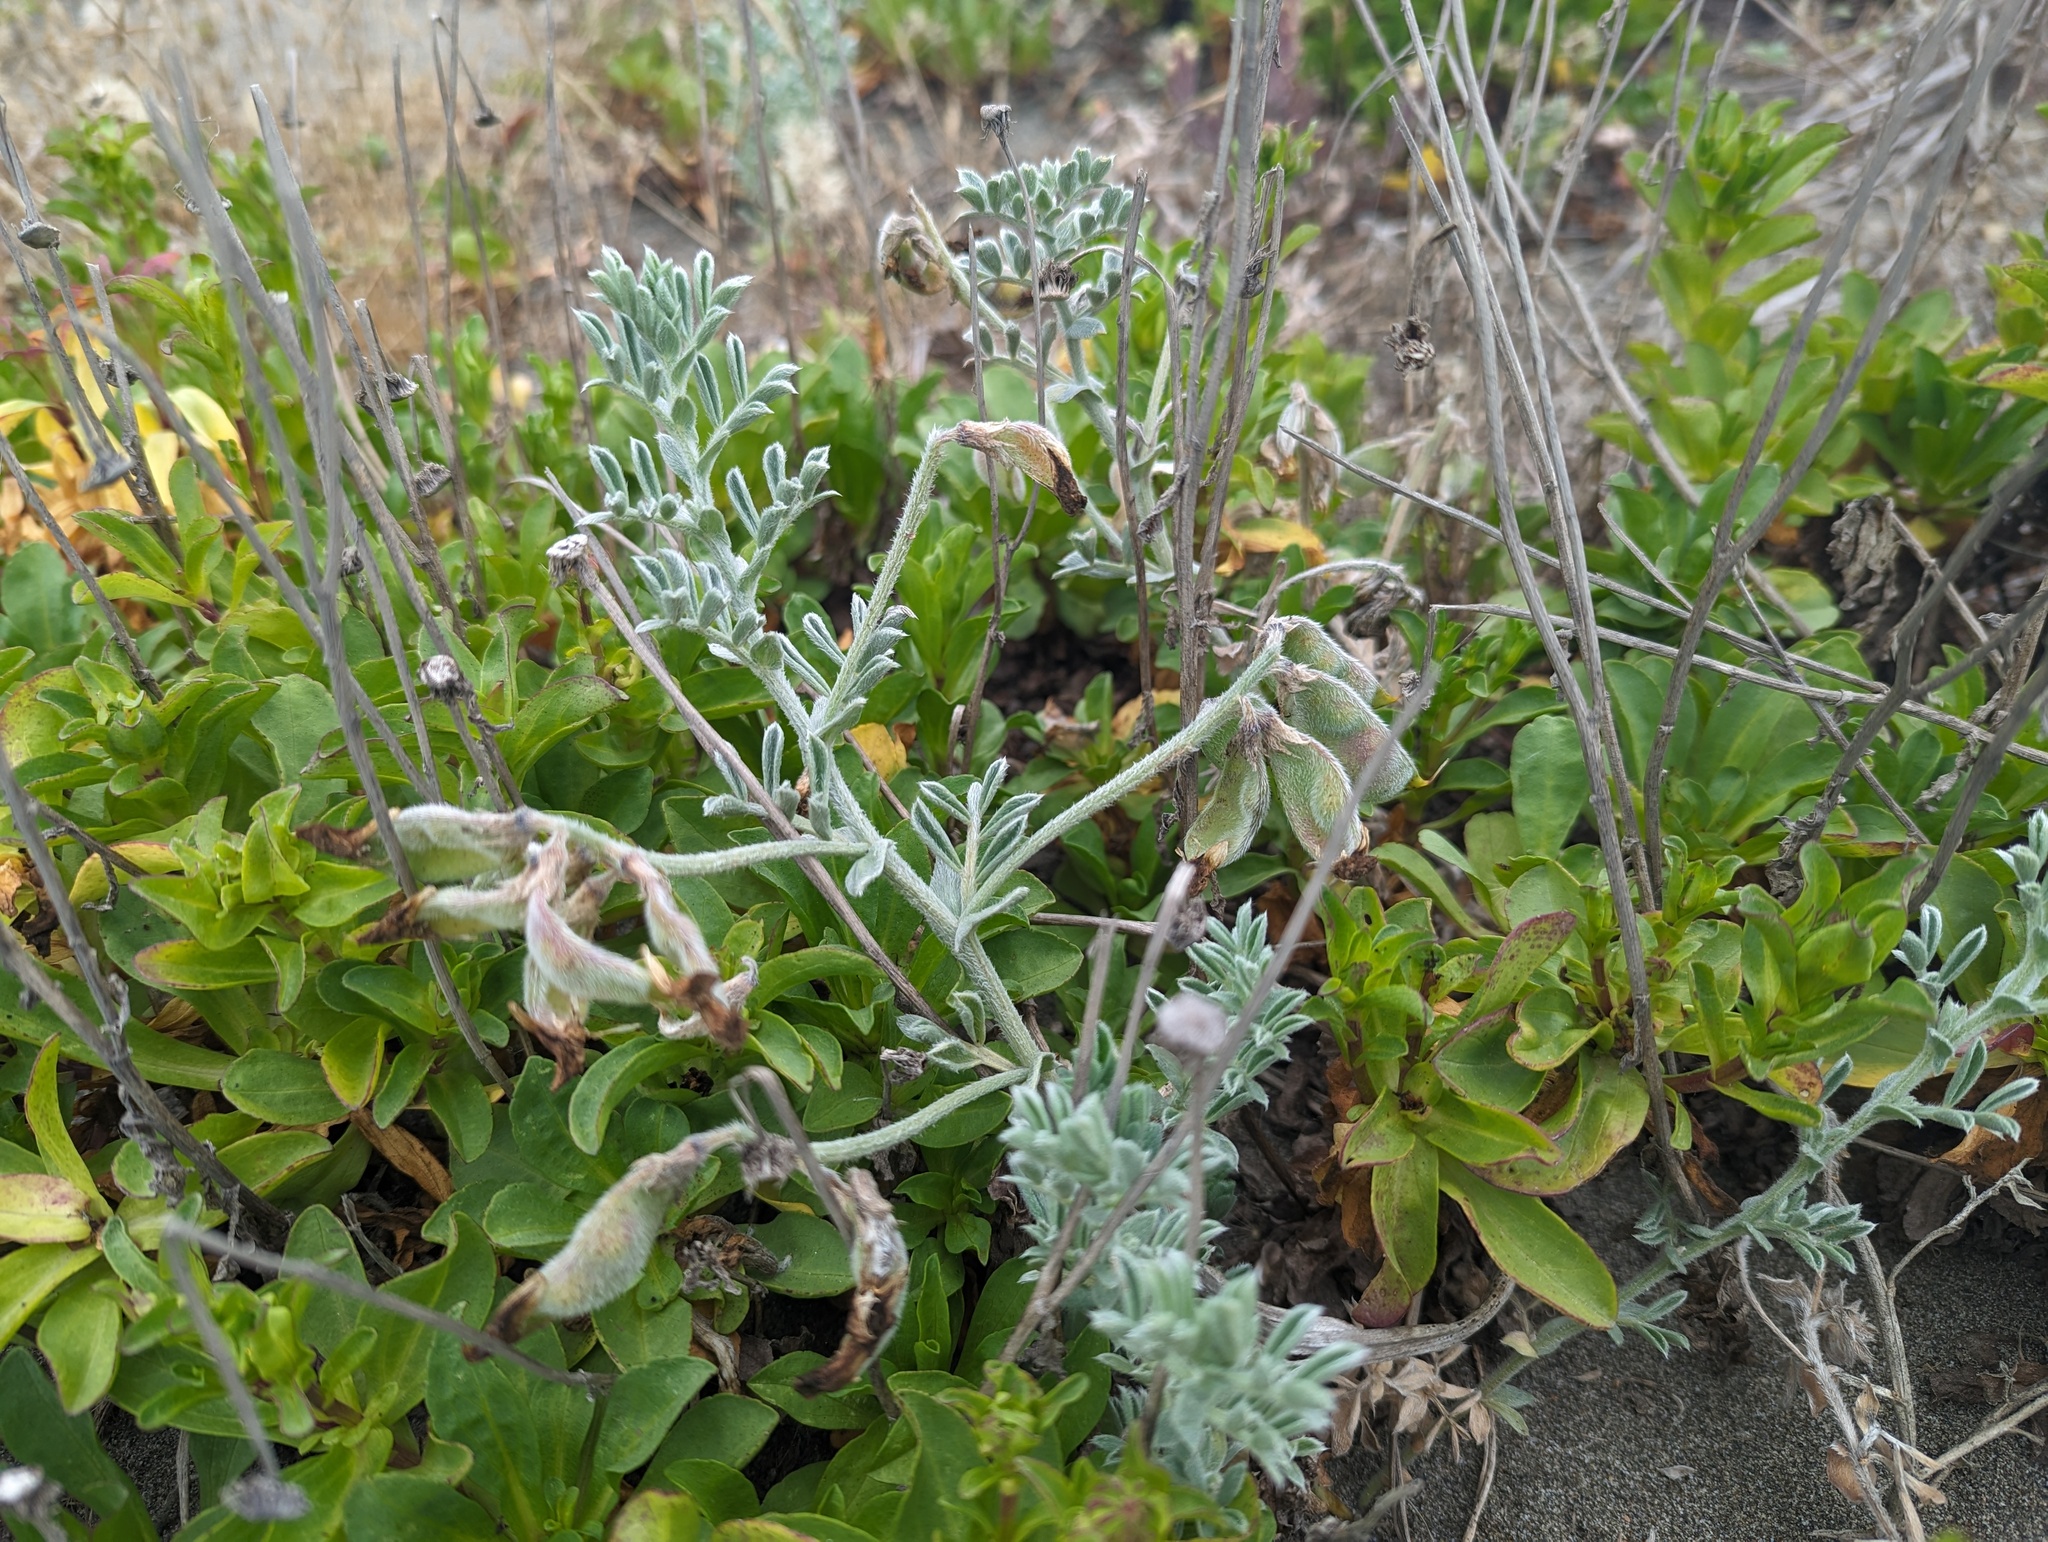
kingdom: Plantae
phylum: Tracheophyta
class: Magnoliopsida
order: Fabales
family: Fabaceae
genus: Lathyrus
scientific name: Lathyrus littoralis
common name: Dune sweet pea
